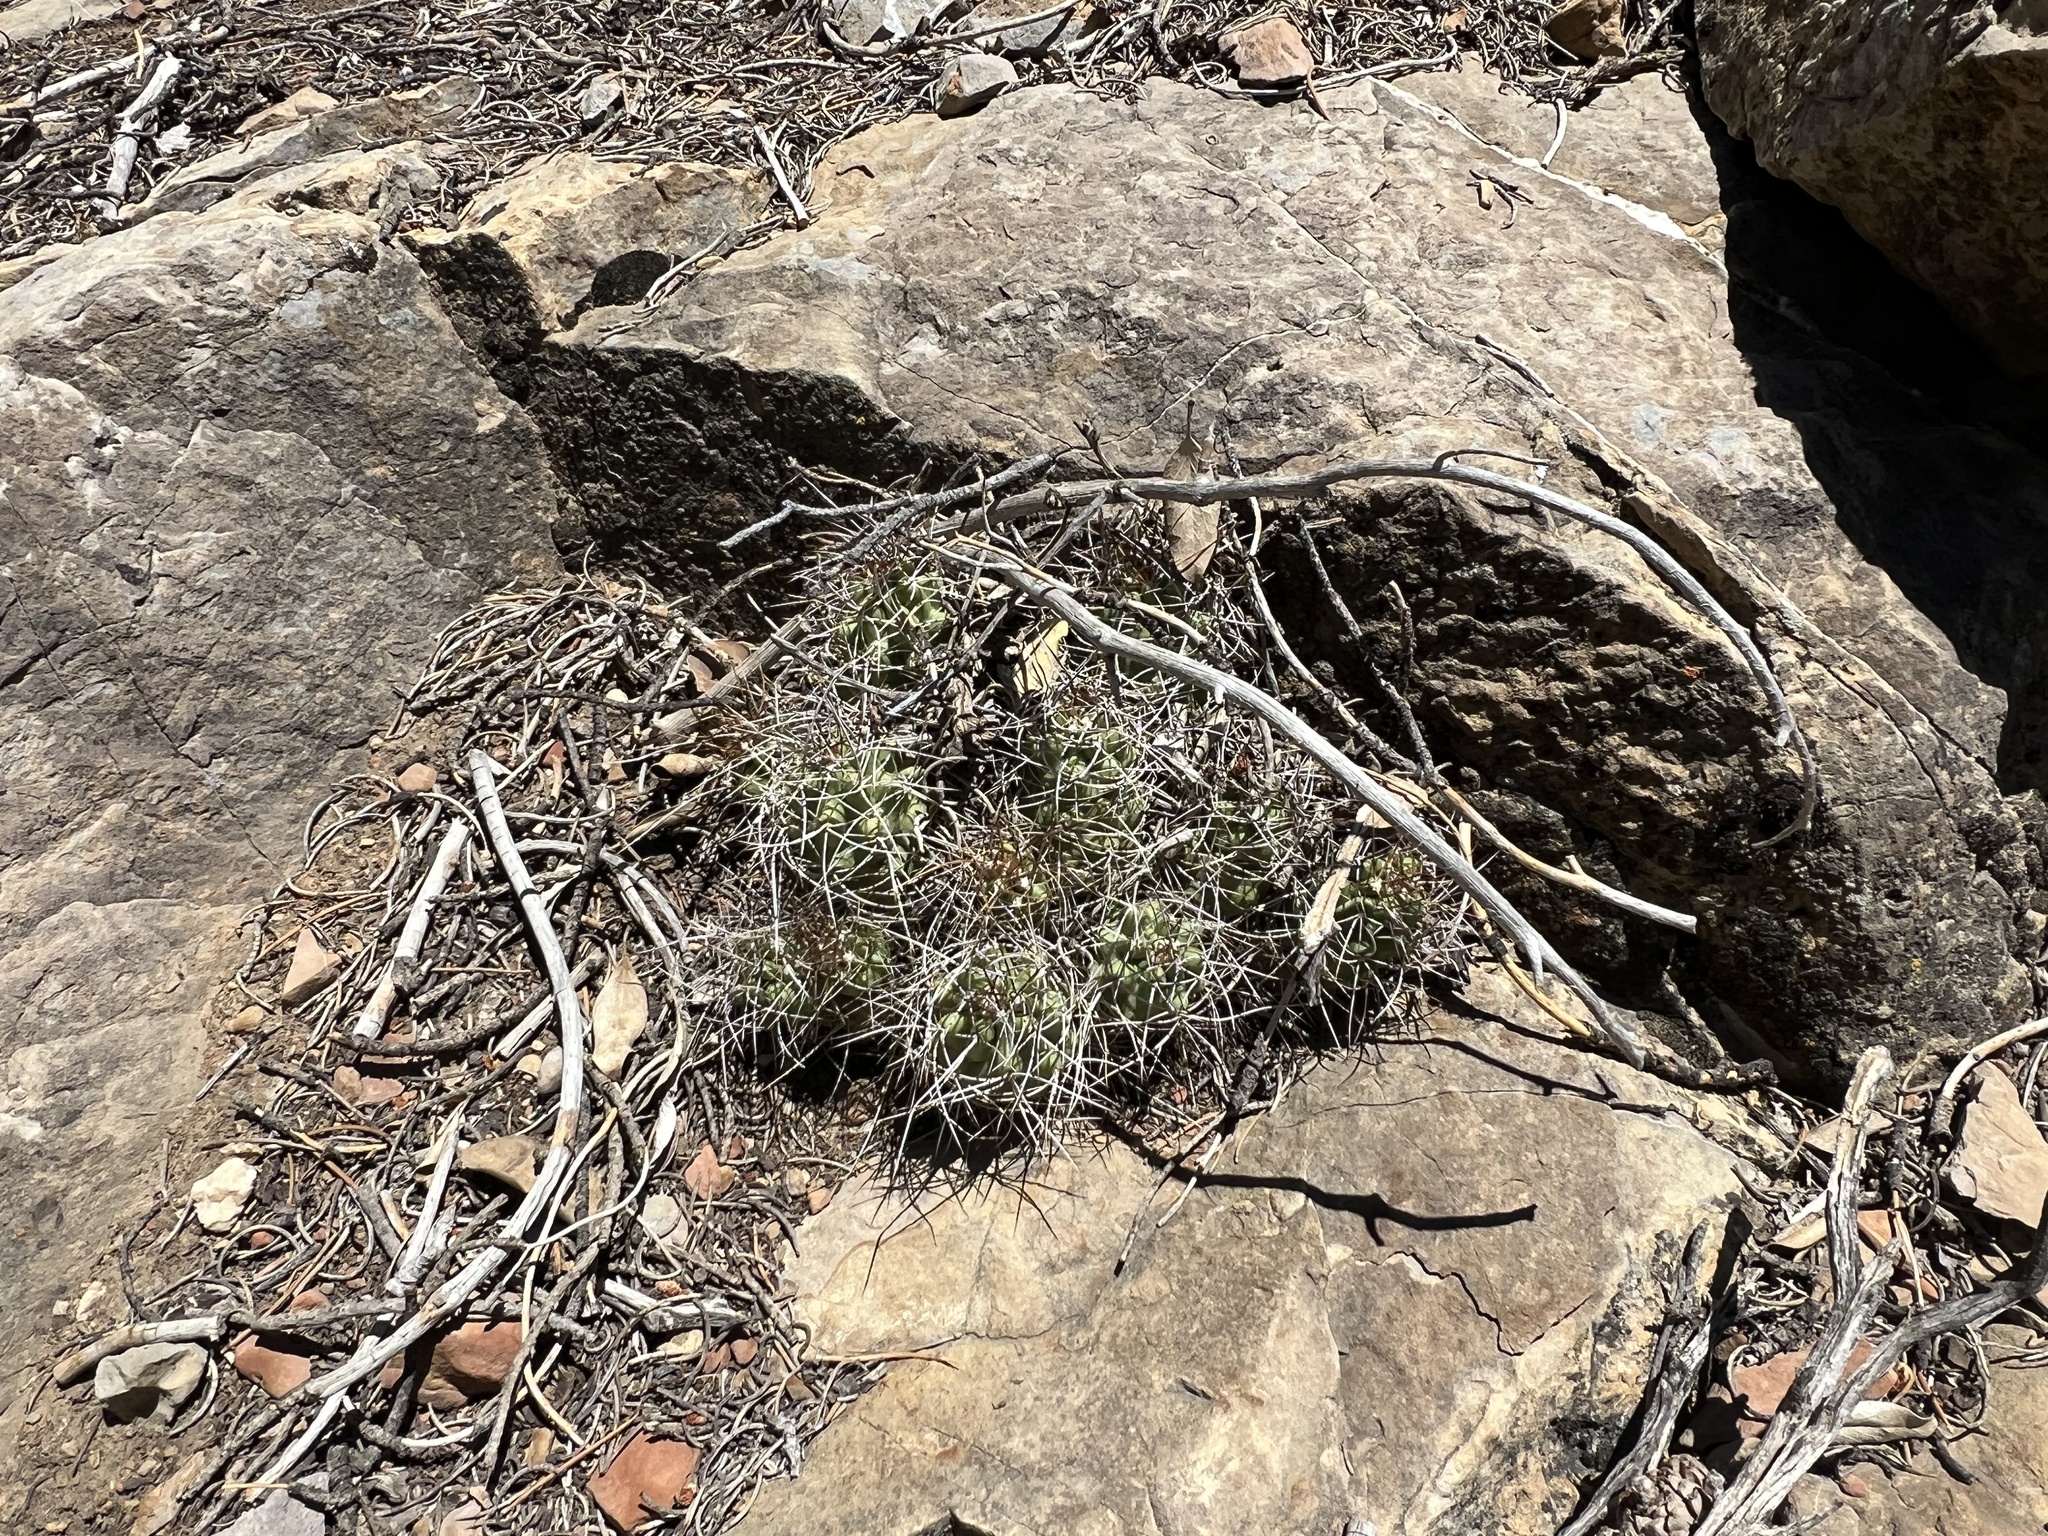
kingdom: Plantae
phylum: Tracheophyta
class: Magnoliopsida
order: Caryophyllales
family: Cactaceae
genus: Echinocereus
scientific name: Echinocereus triglochidiatus
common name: Claretcup hedgehog
